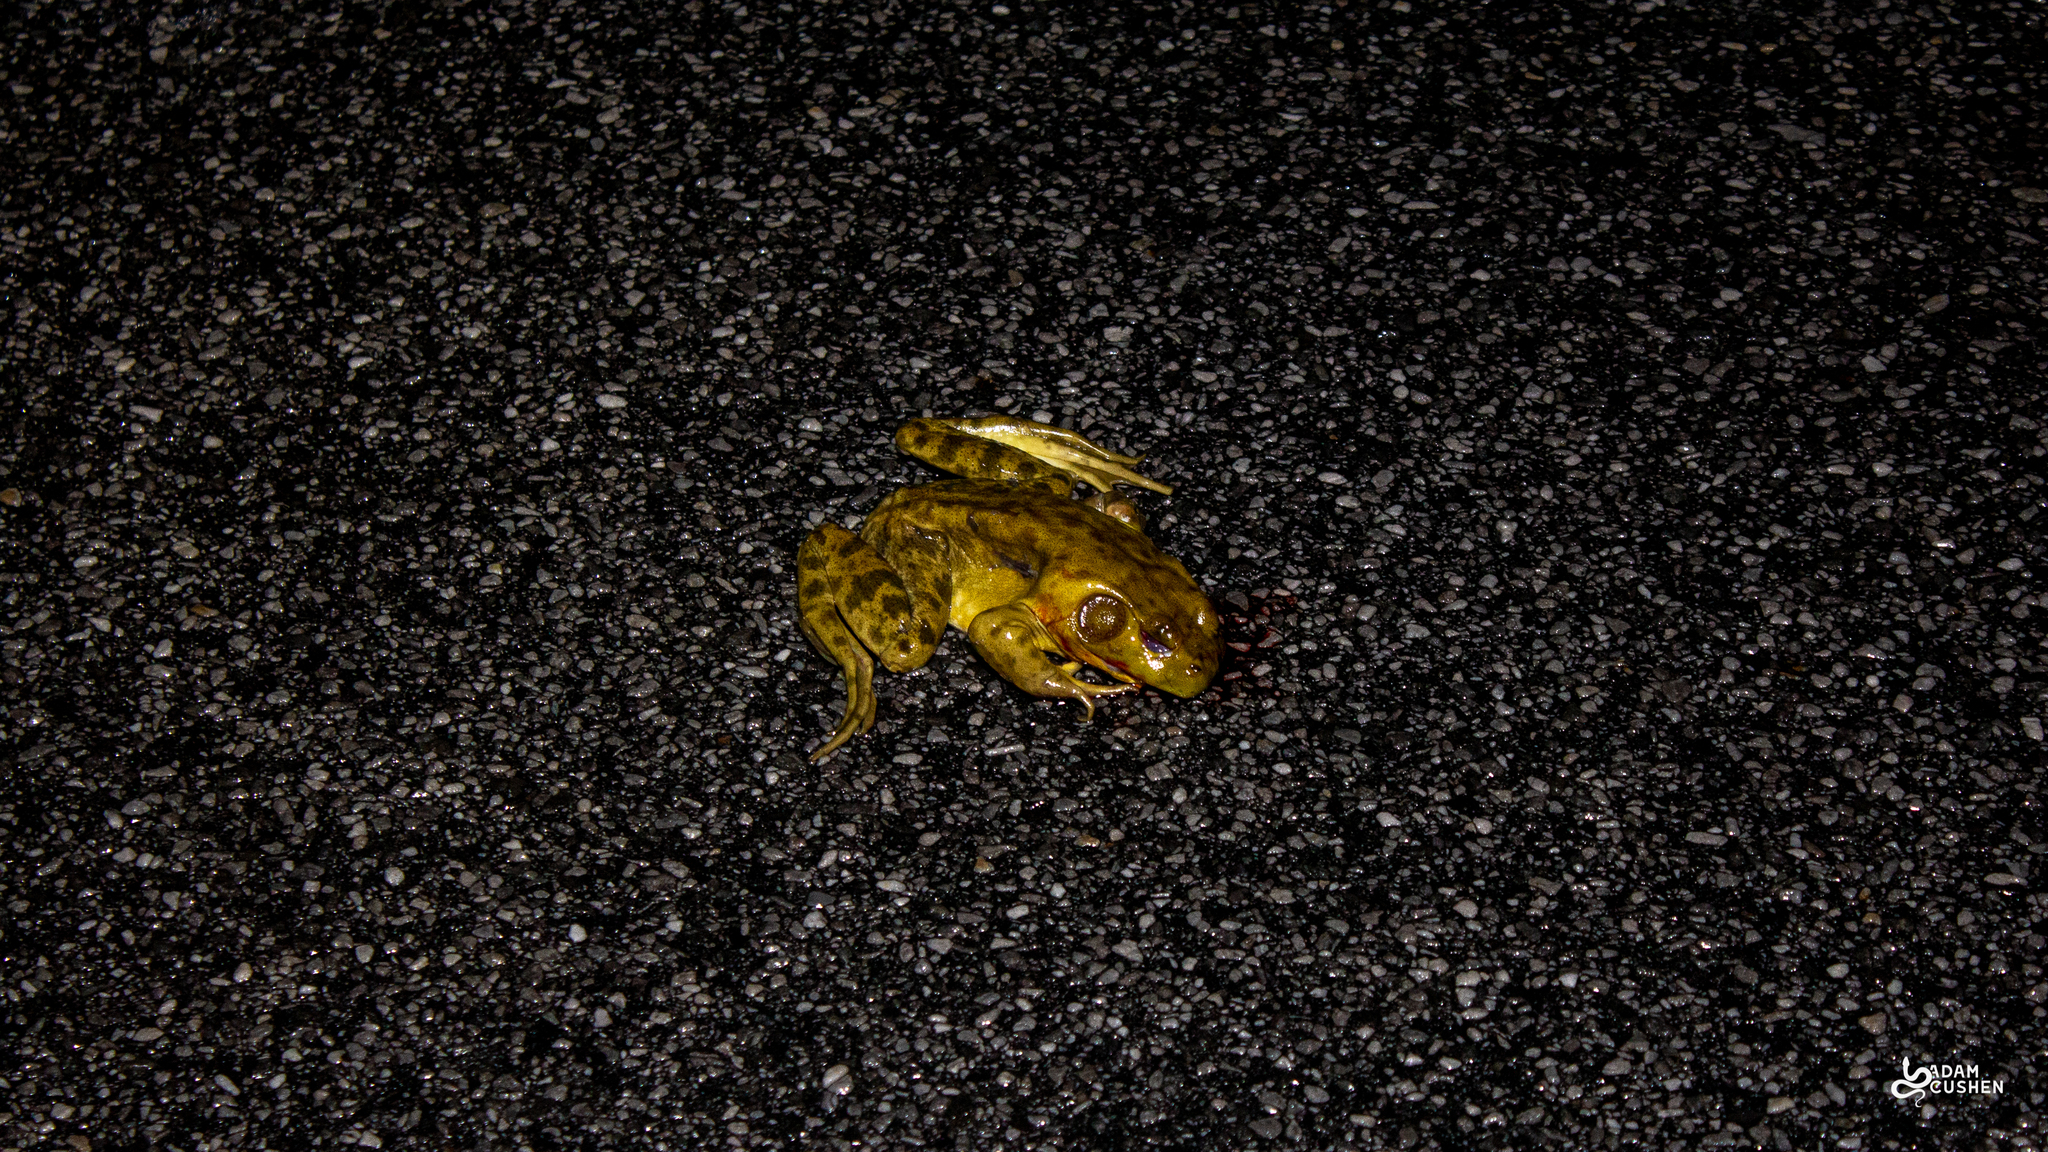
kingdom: Animalia
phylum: Chordata
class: Amphibia
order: Anura
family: Ranidae
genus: Lithobates
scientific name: Lithobates catesbeianus
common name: American bullfrog
